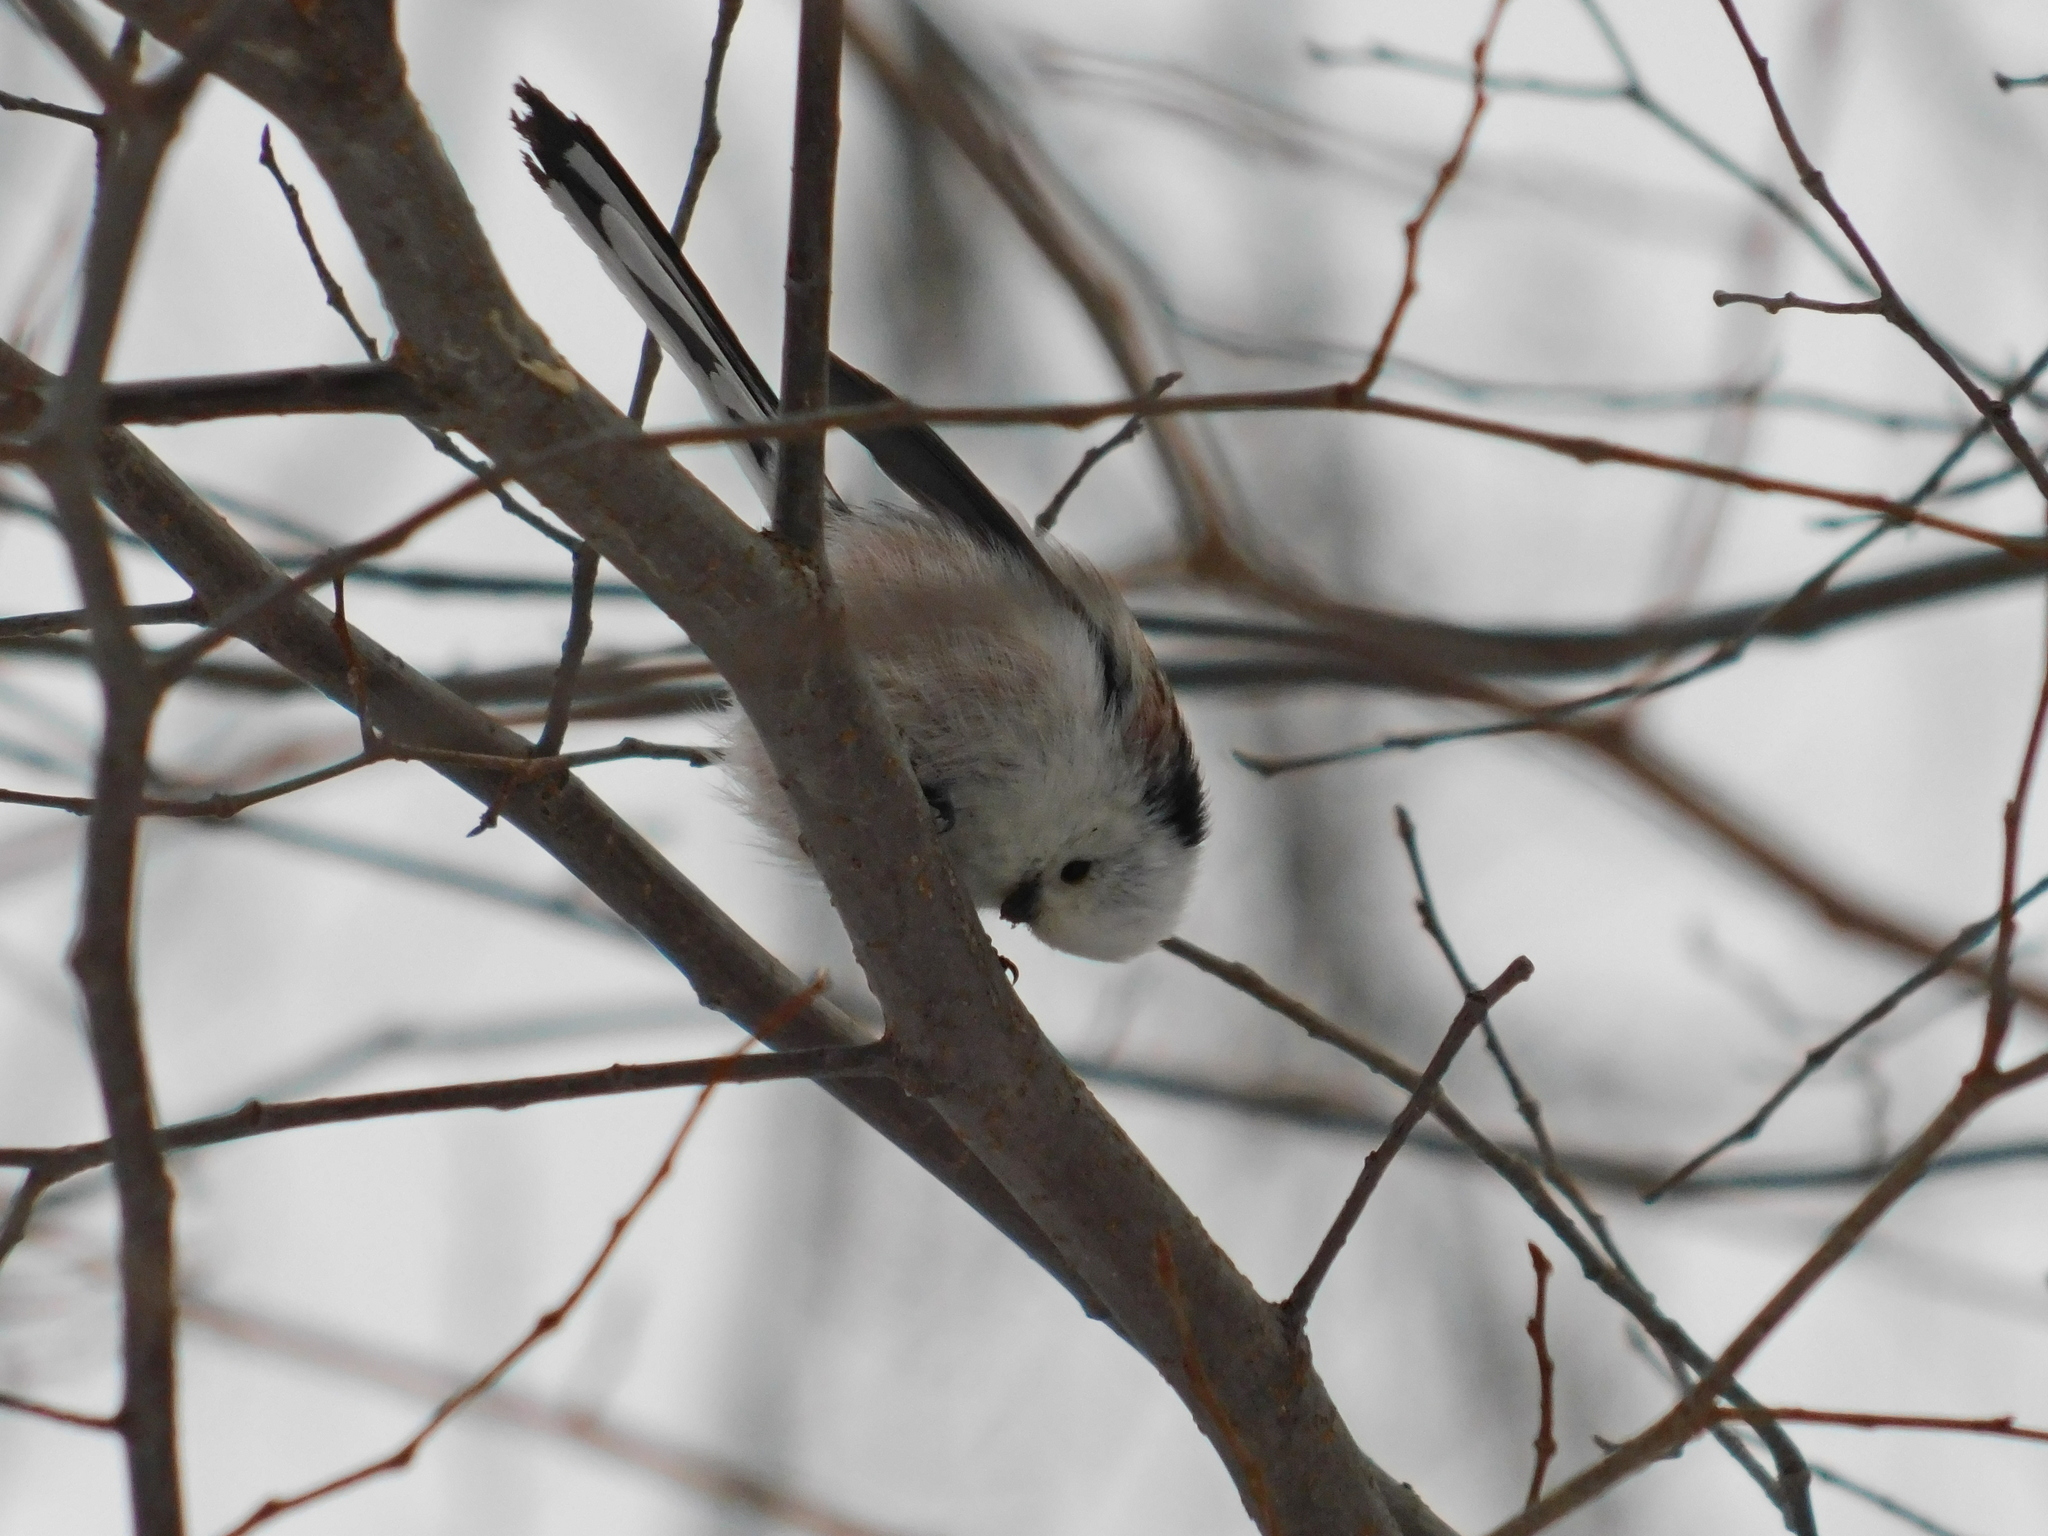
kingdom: Animalia
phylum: Chordata
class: Aves
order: Passeriformes
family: Aegithalidae
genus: Aegithalos
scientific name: Aegithalos caudatus
